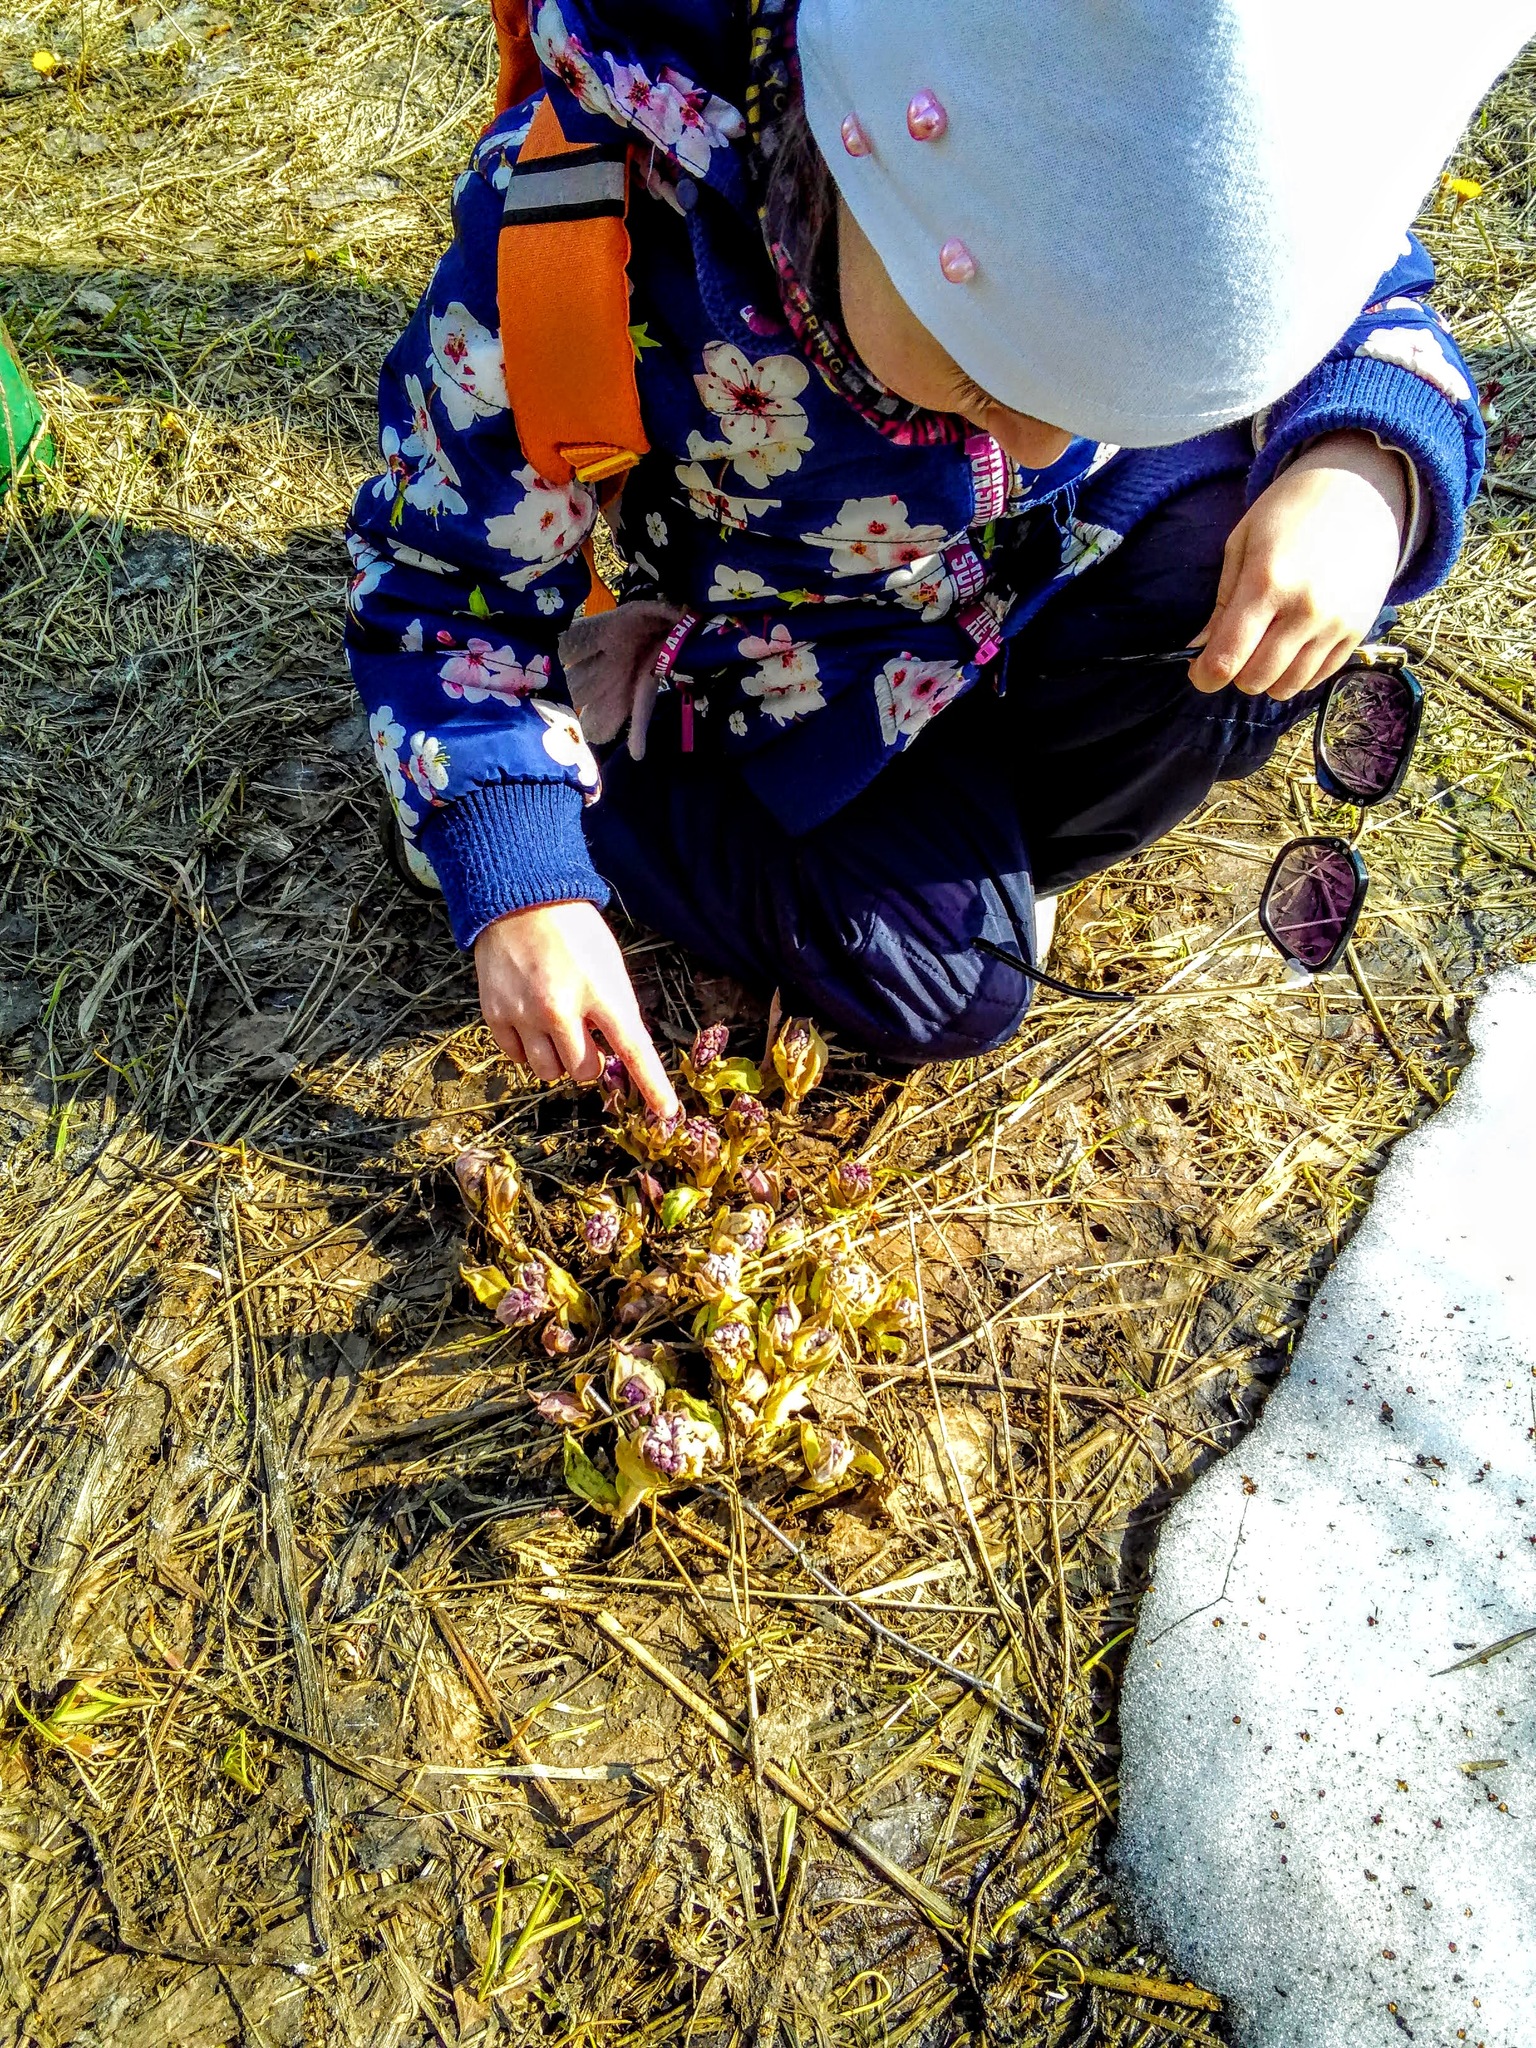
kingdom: Plantae
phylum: Tracheophyta
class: Magnoliopsida
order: Boraginales
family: Boraginaceae
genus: Pulmonaria
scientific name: Pulmonaria mollis
